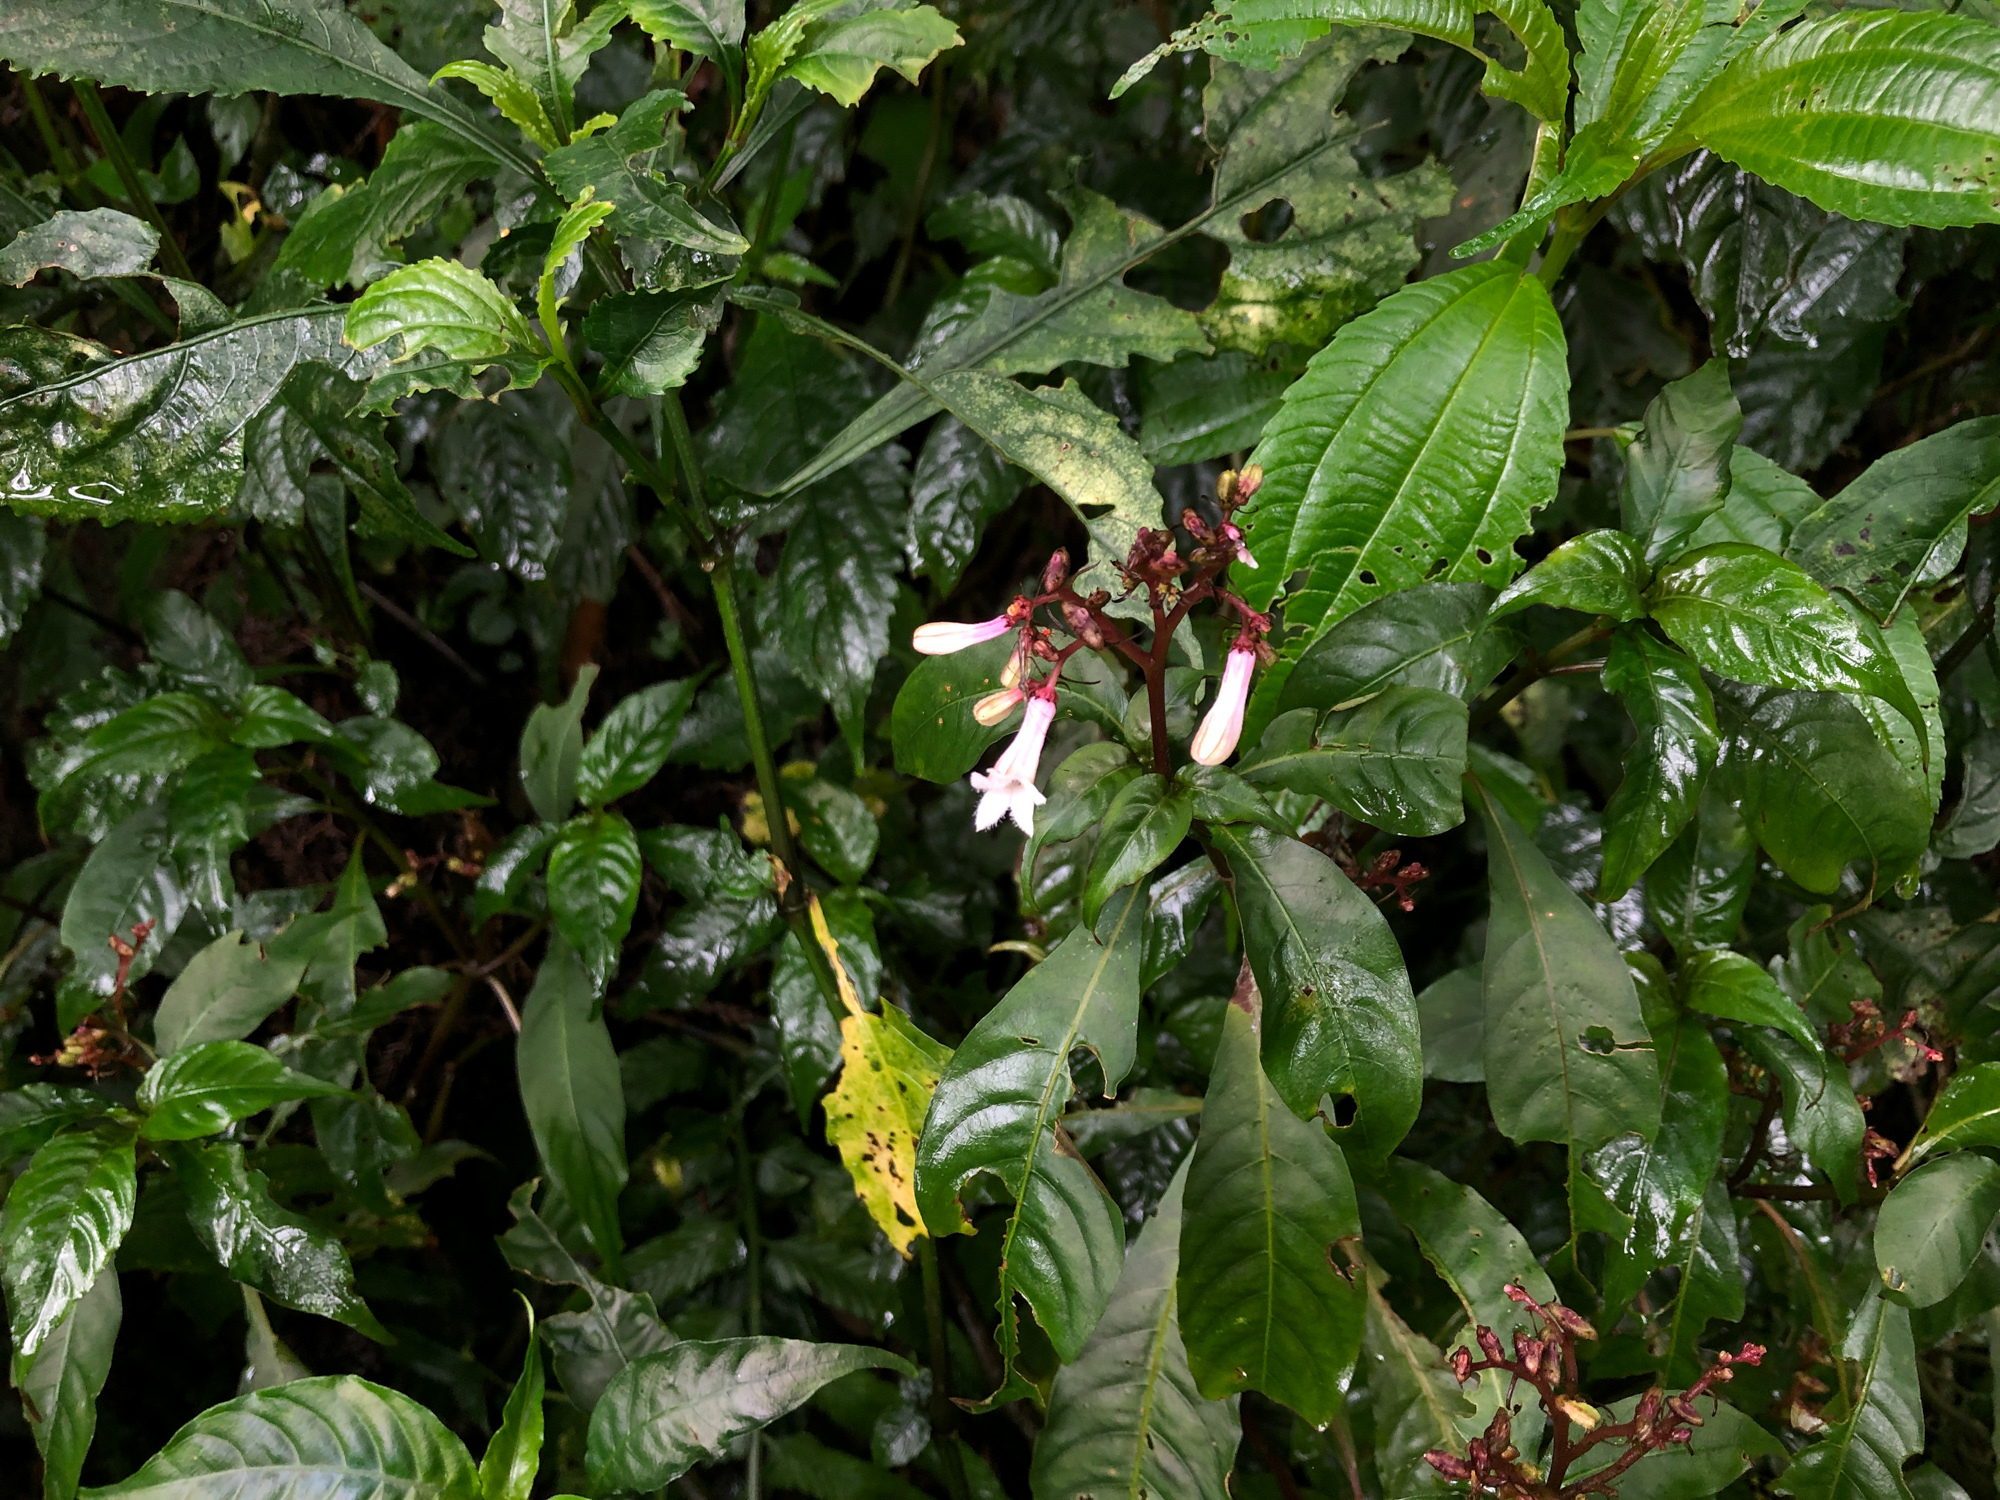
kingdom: Plantae
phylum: Tracheophyta
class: Magnoliopsida
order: Gentianales
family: Rubiaceae
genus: Ophiorrhiza
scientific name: Ophiorrhiza japonica
